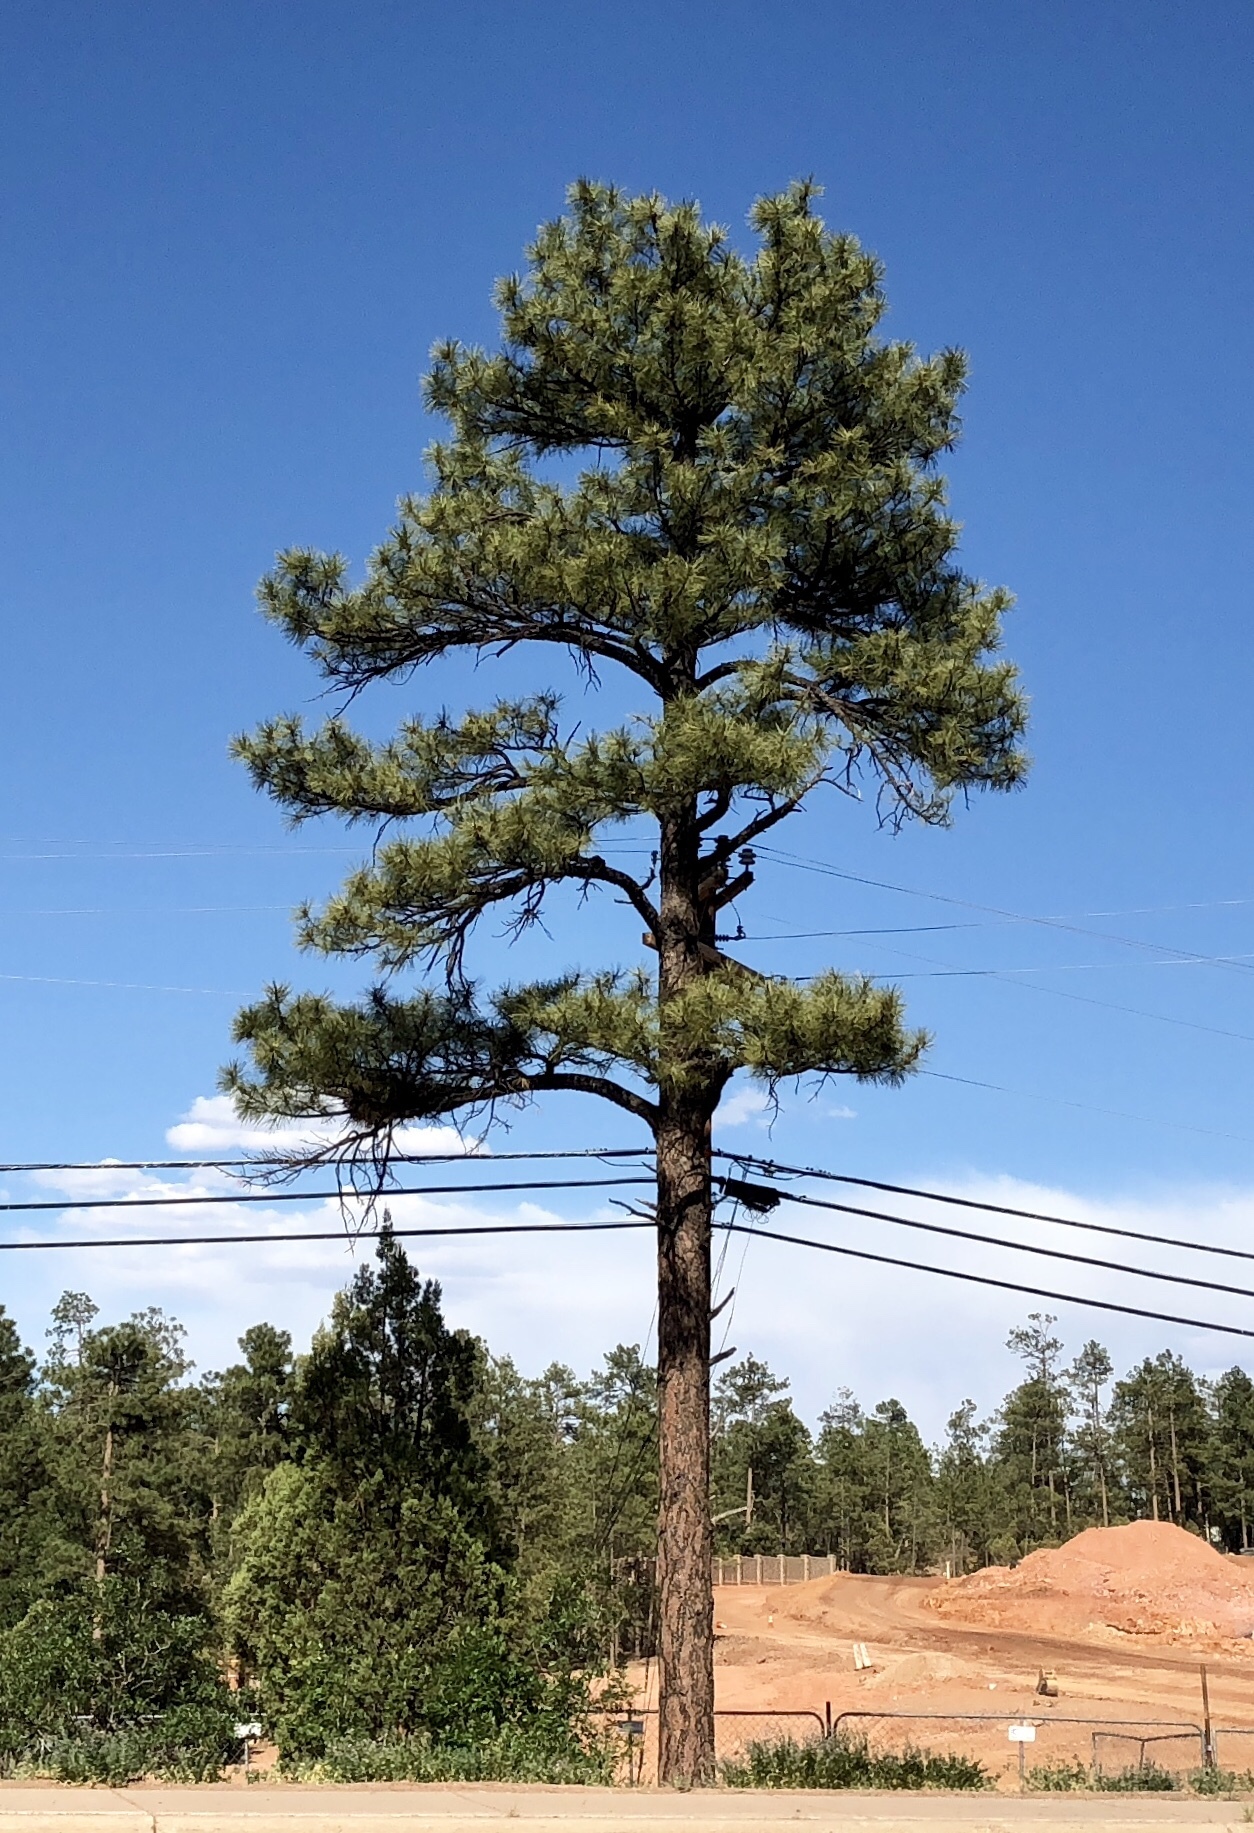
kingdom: Plantae
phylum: Tracheophyta
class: Pinopsida
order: Pinales
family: Pinaceae
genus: Pinus
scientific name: Pinus ponderosa
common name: Western yellow-pine
